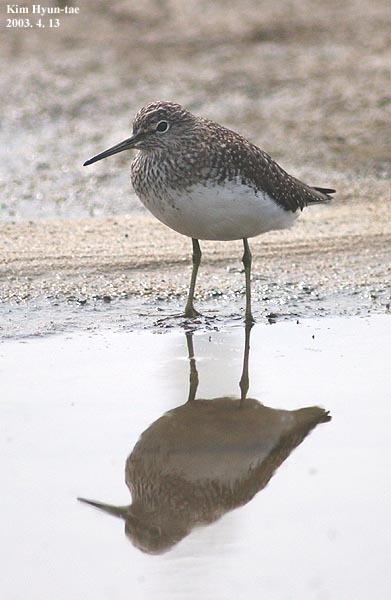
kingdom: Animalia
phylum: Chordata
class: Aves
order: Charadriiformes
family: Scolopacidae
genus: Tringa
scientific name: Tringa glareola
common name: Wood sandpiper
